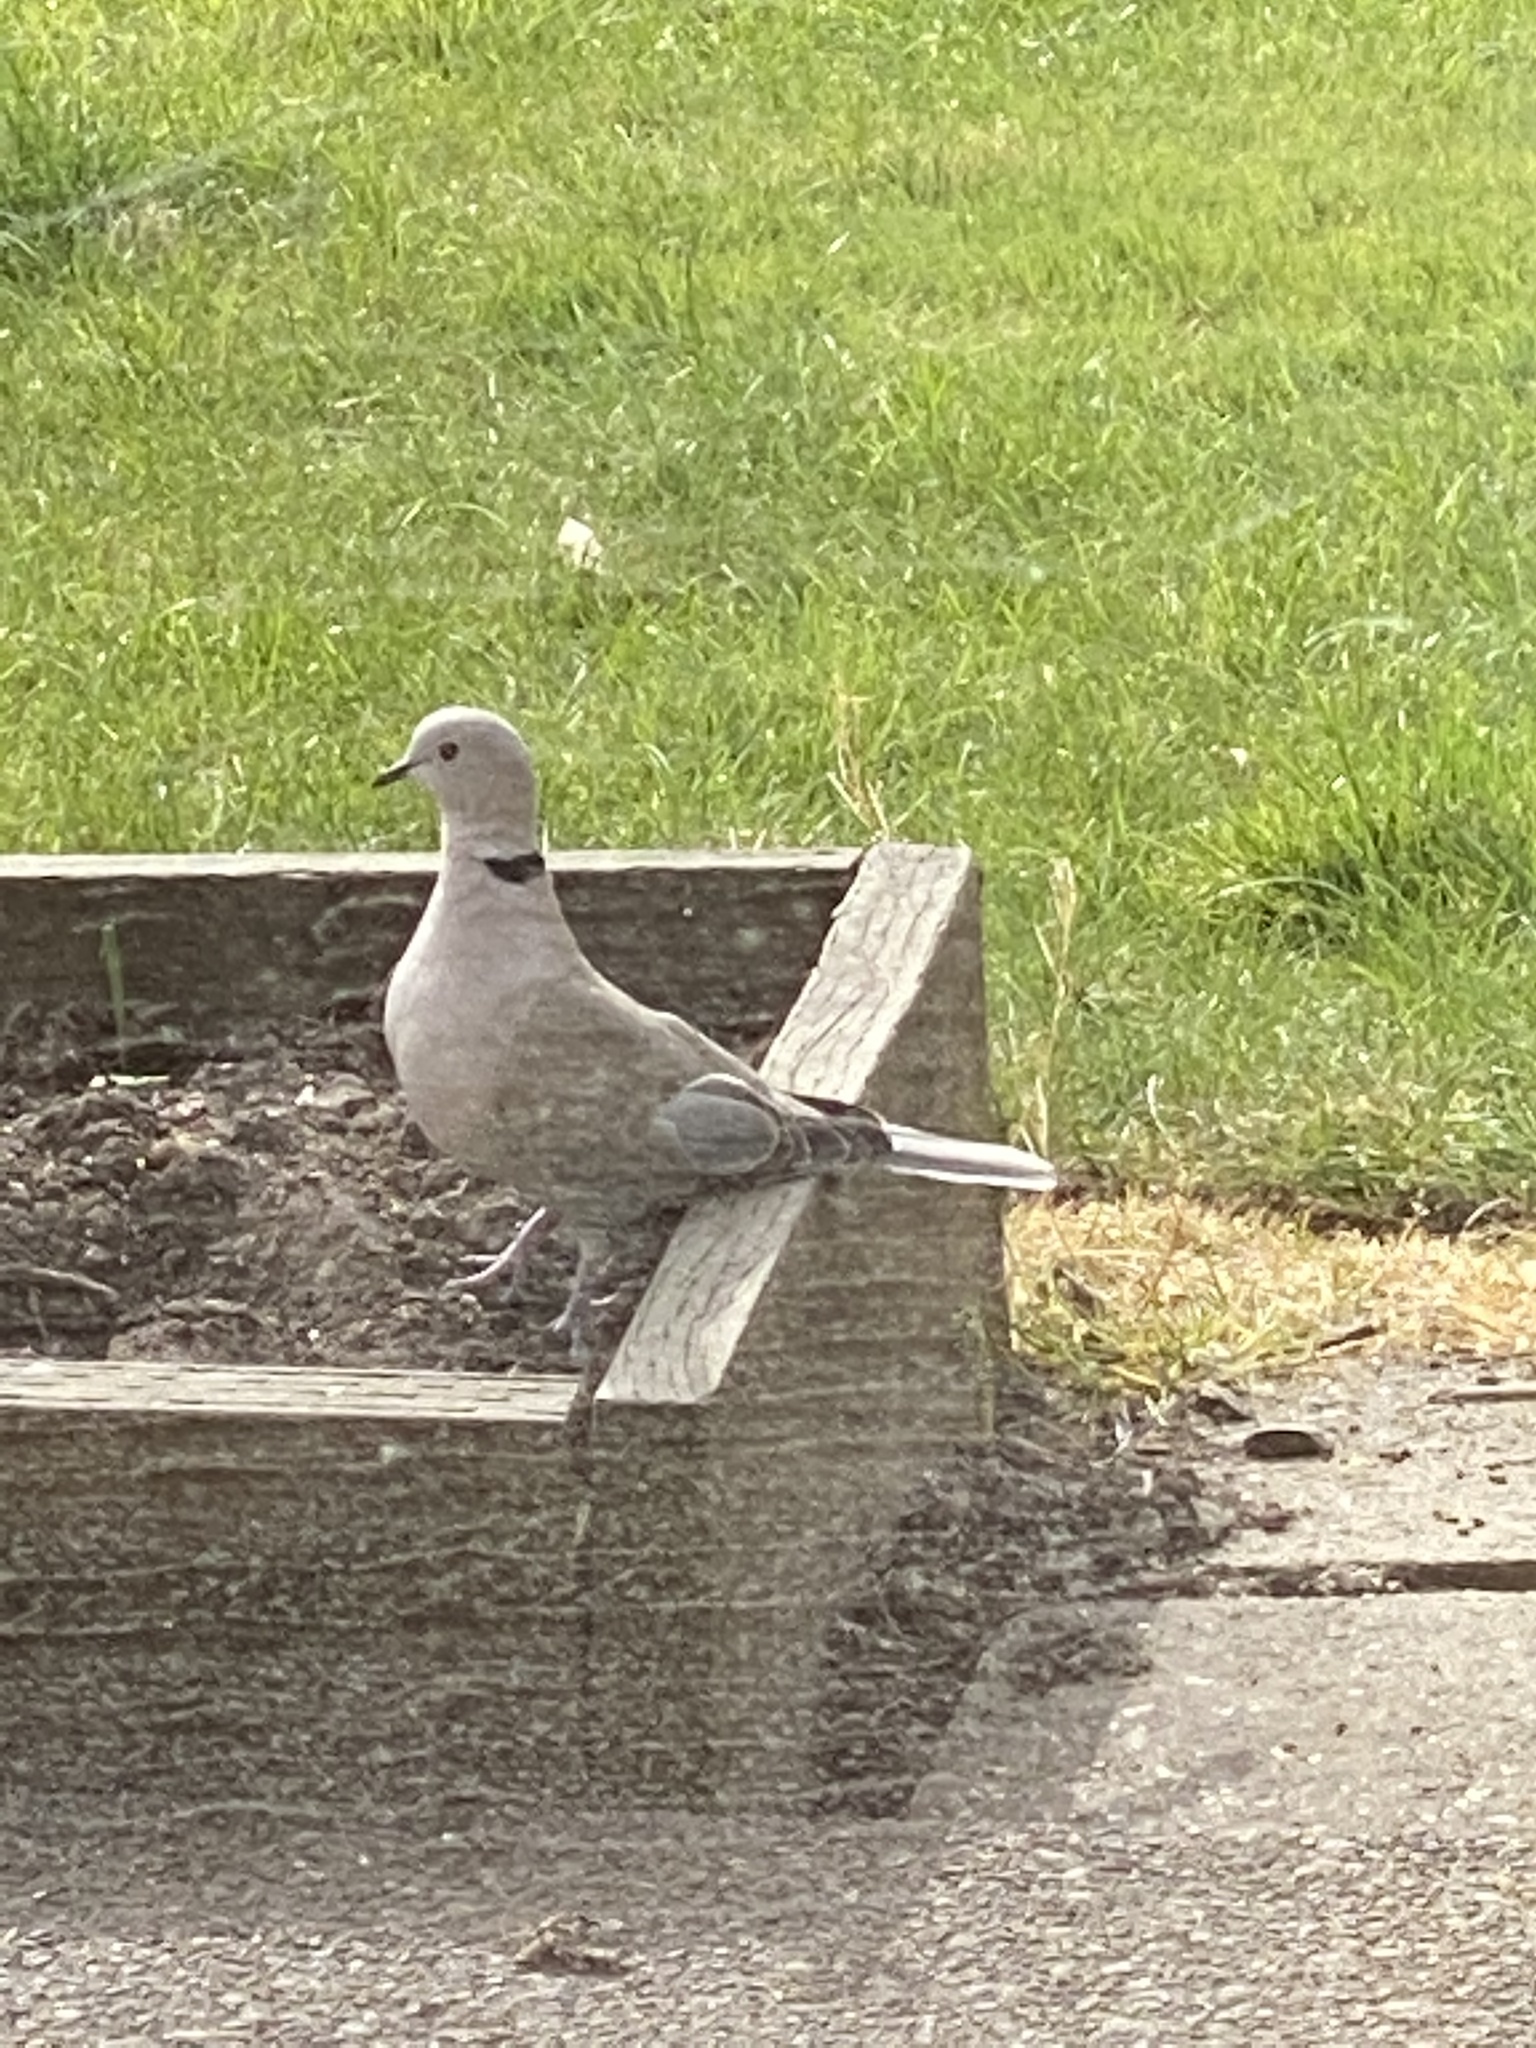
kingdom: Animalia
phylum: Chordata
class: Aves
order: Columbiformes
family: Columbidae
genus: Streptopelia
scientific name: Streptopelia decaocto
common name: Eurasian collared dove
